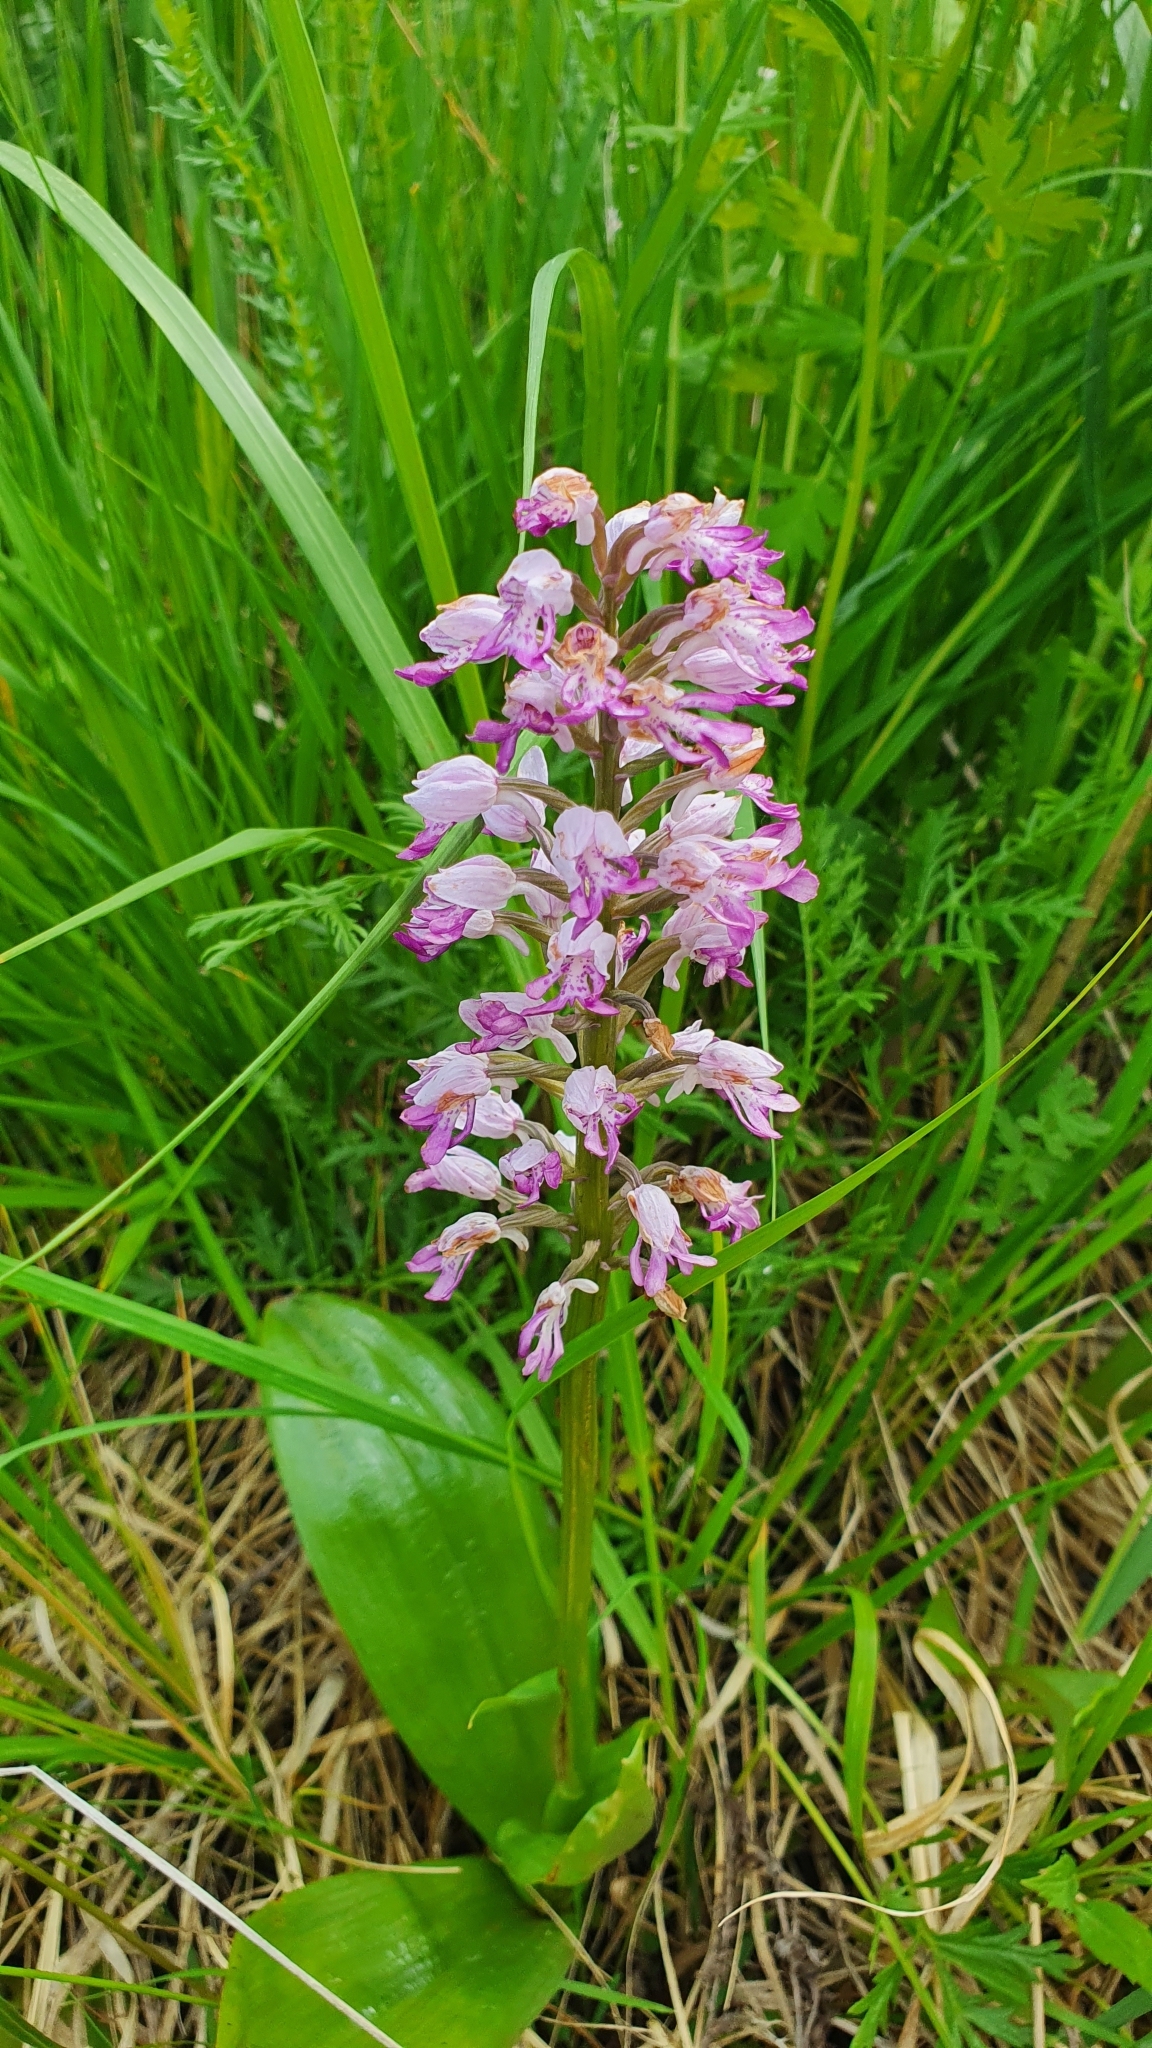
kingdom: Plantae
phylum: Tracheophyta
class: Liliopsida
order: Asparagales
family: Orchidaceae
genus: Orchis
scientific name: Orchis militaris
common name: Military orchid
